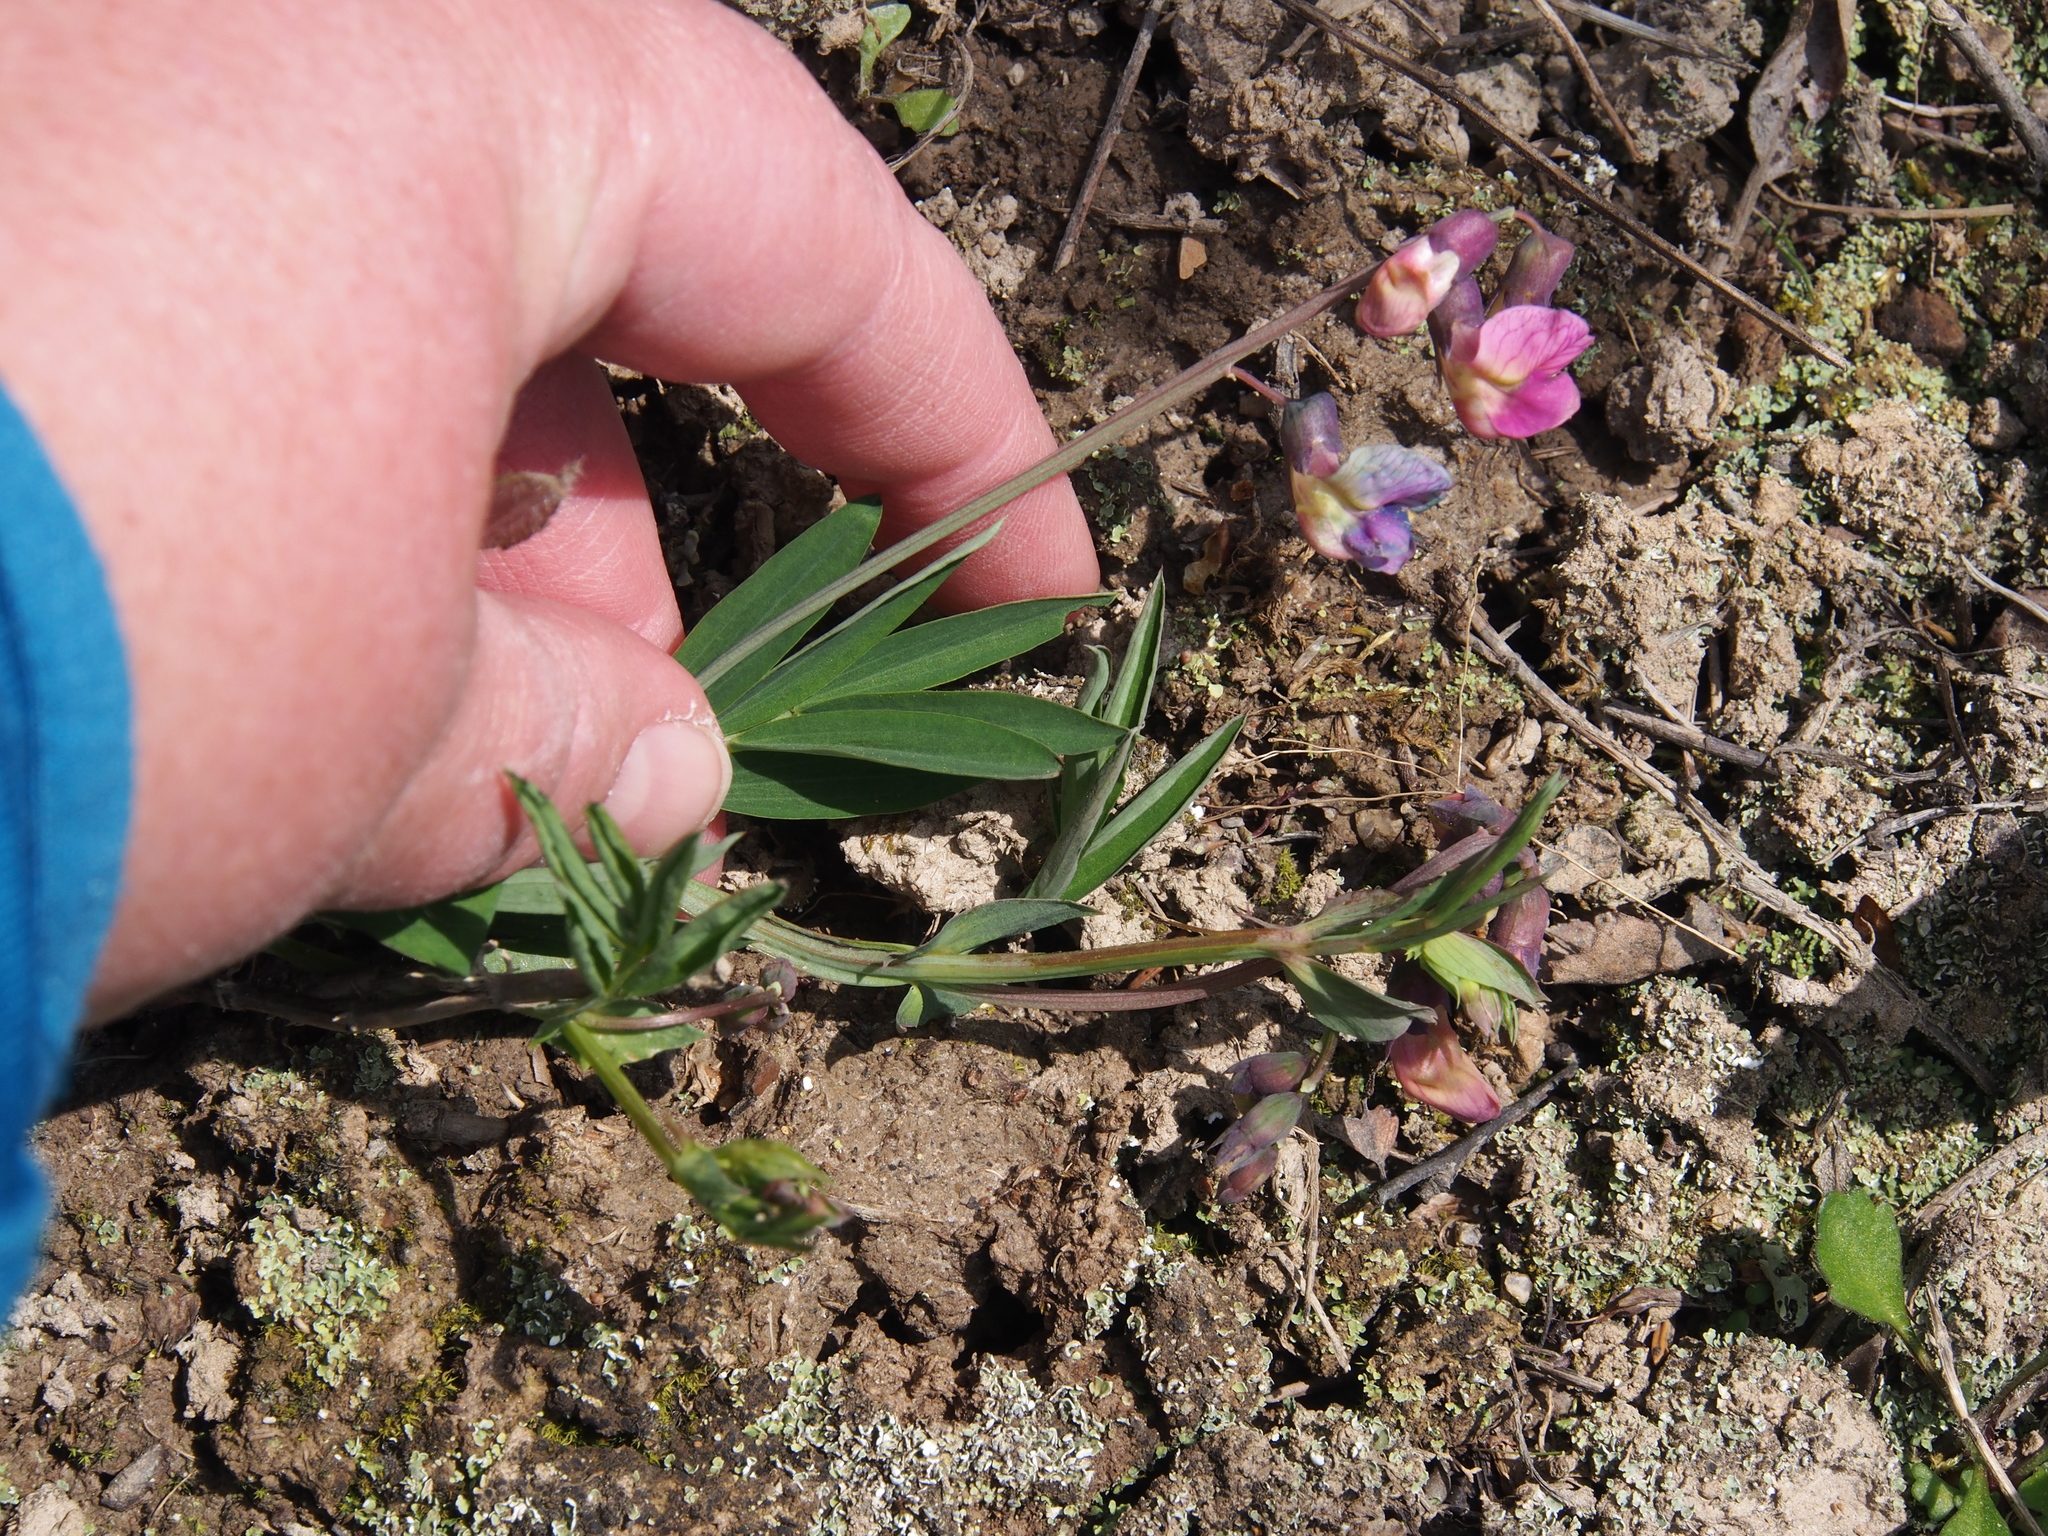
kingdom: Plantae
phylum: Tracheophyta
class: Magnoliopsida
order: Fabales
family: Fabaceae
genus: Lathyrus
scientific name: Lathyrus linifolius
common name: Bitter-vetch
